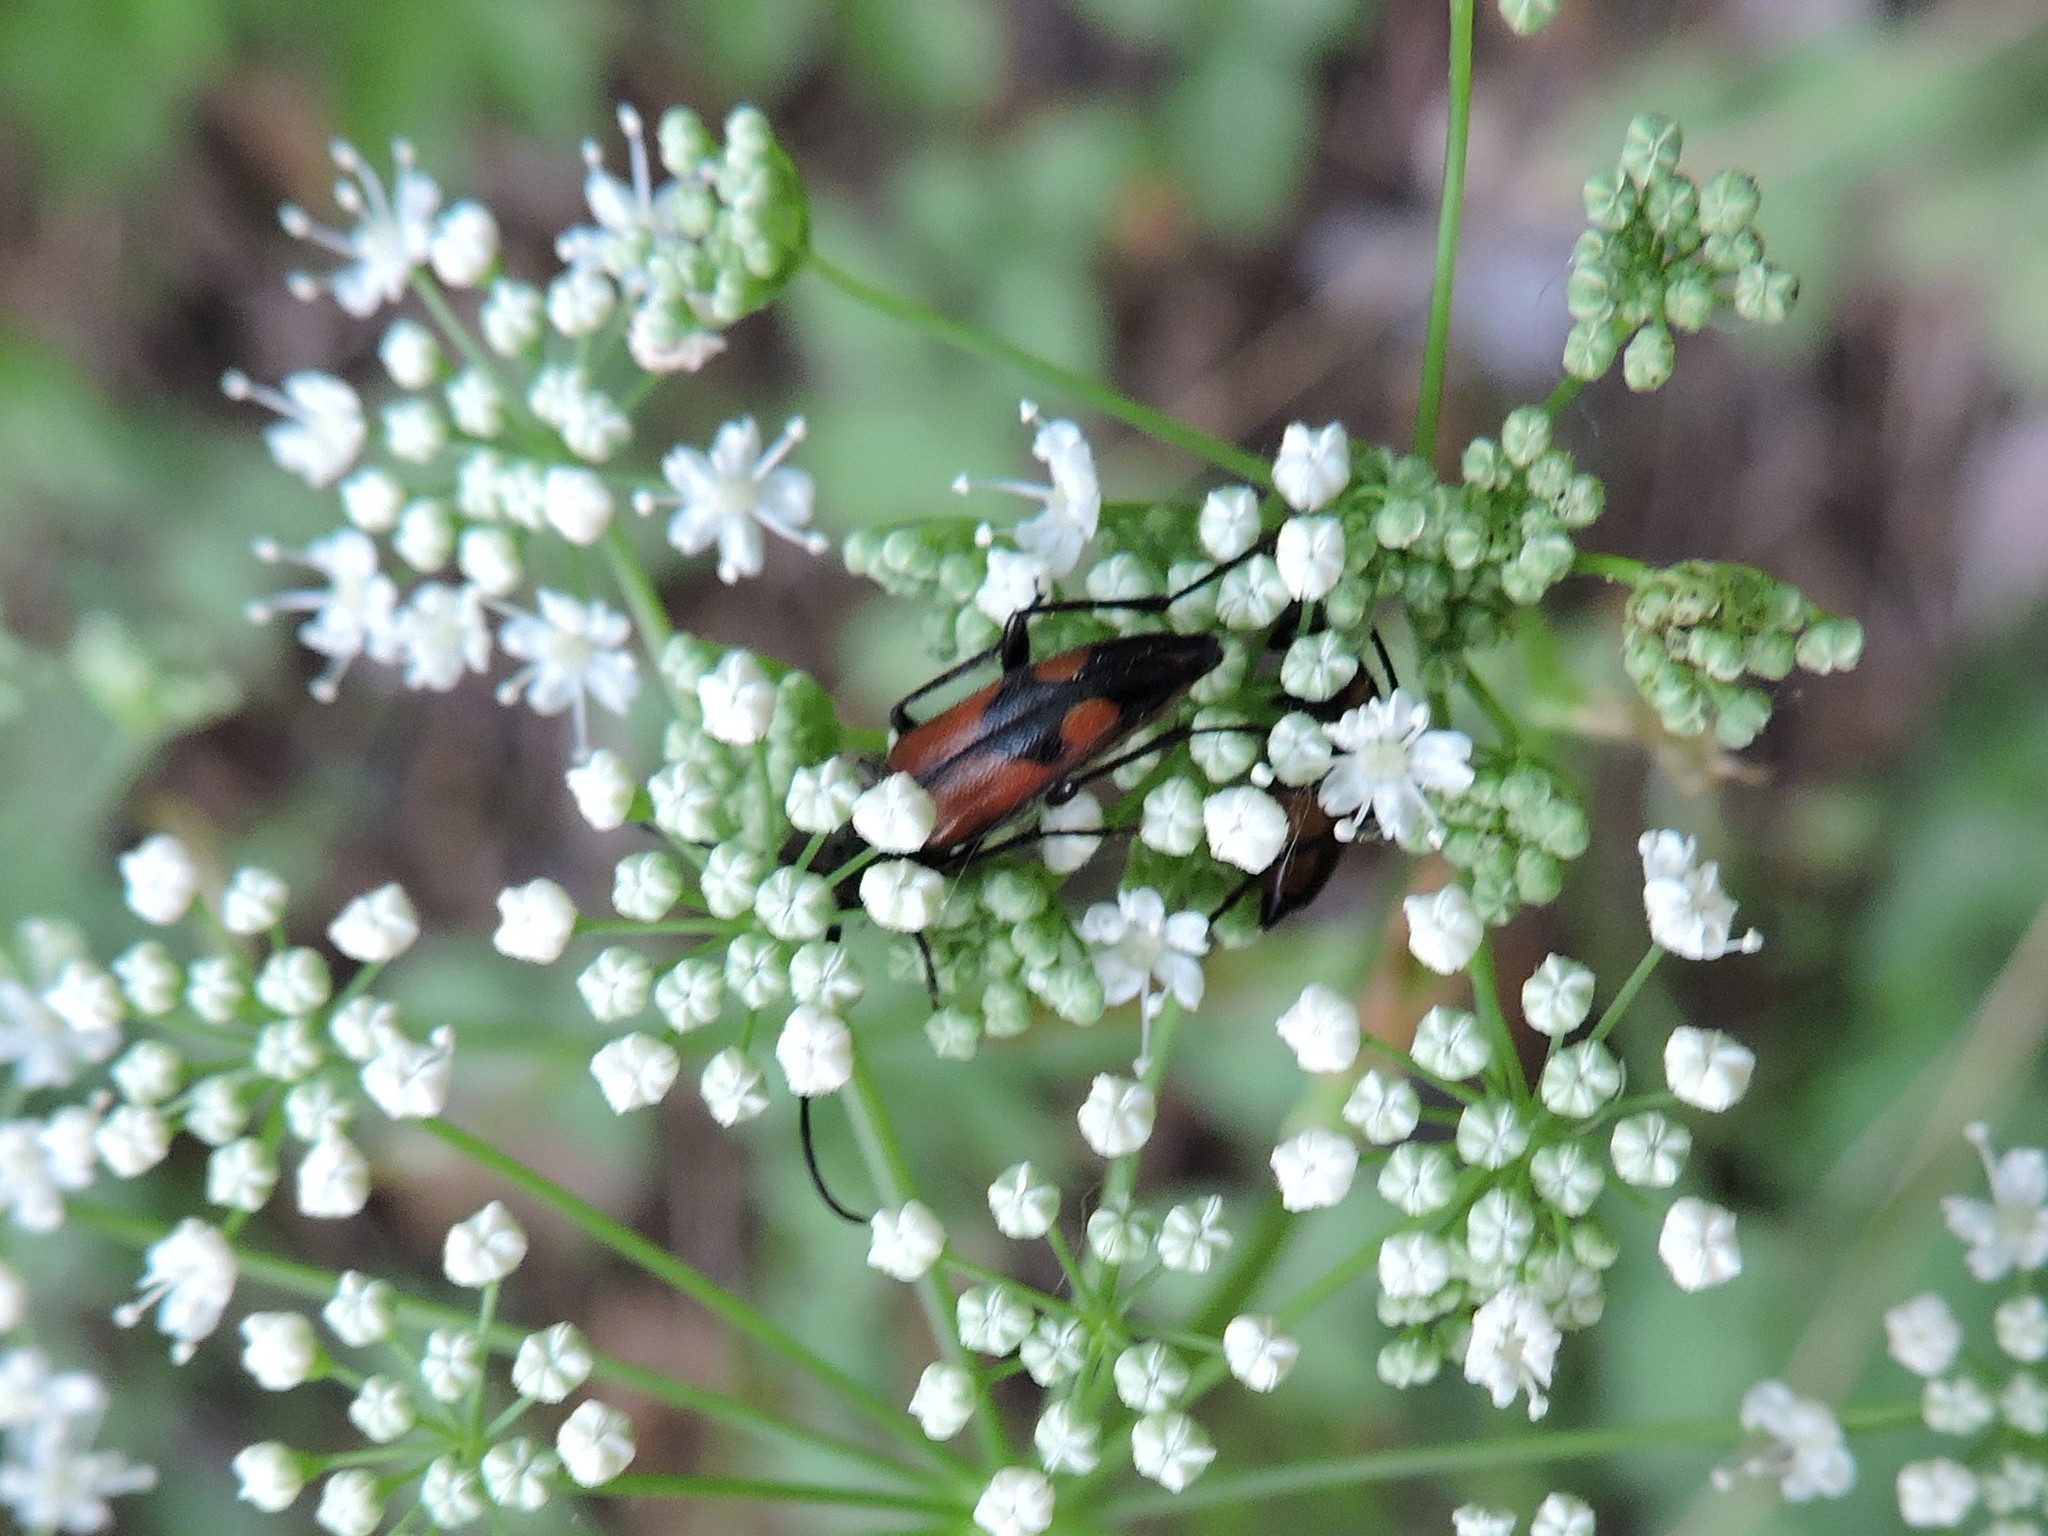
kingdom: Animalia
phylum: Arthropoda
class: Insecta
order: Coleoptera
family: Cerambycidae
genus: Stenurella
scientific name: Stenurella bifasciata
